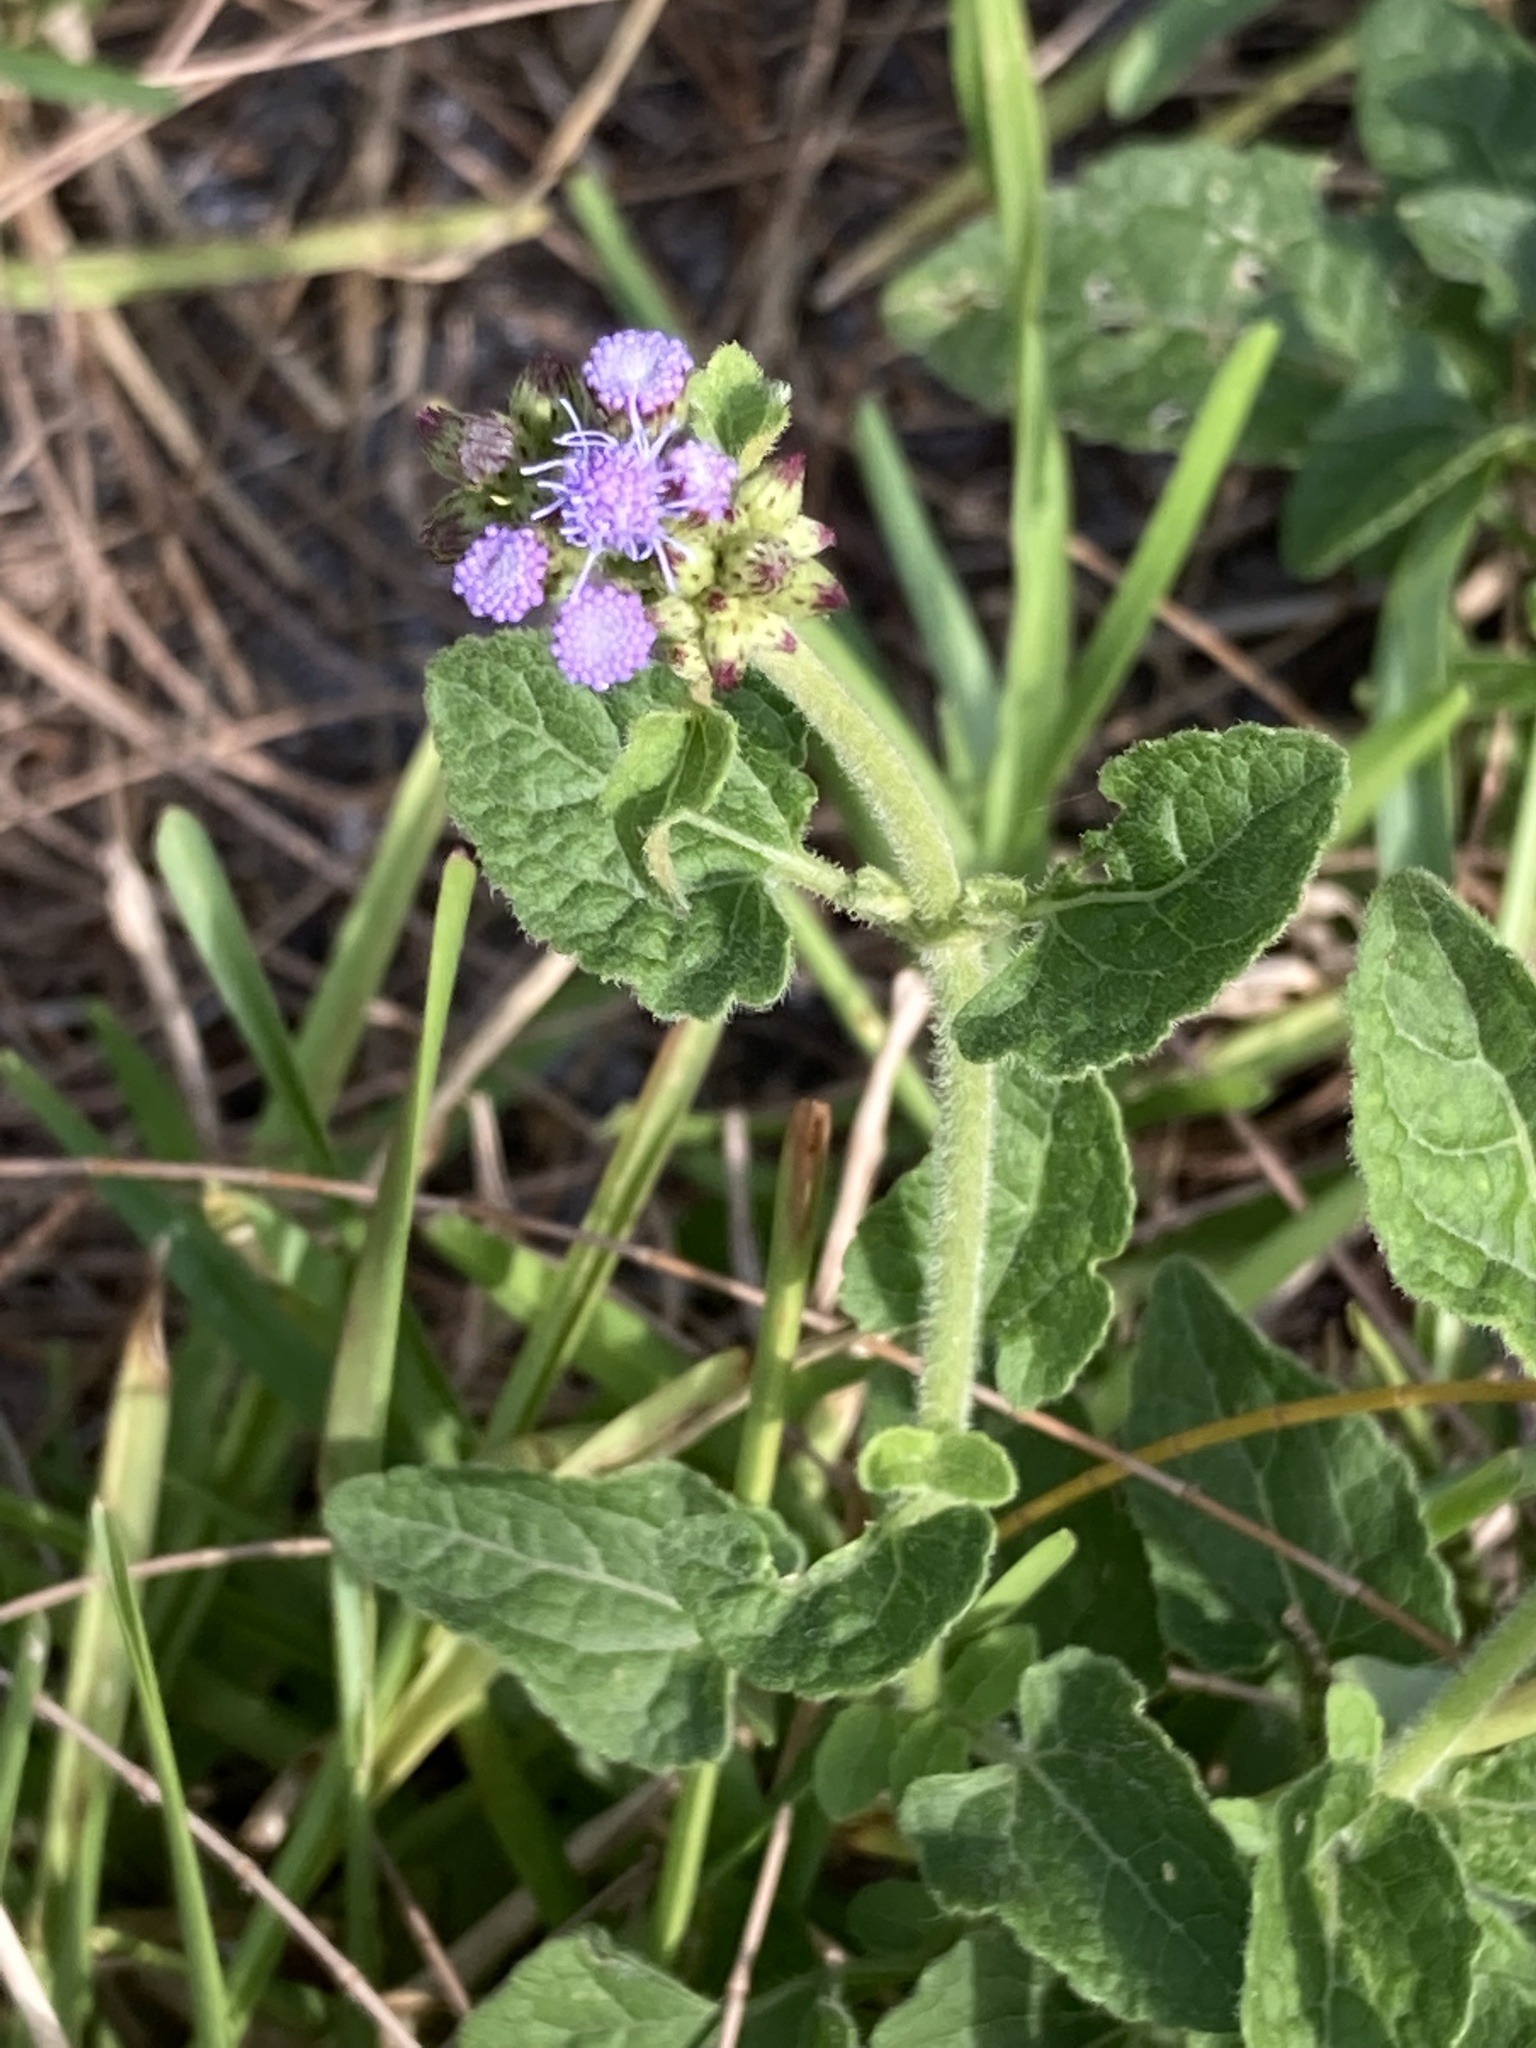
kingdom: Plantae
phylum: Tracheophyta
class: Magnoliopsida
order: Asterales
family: Asteraceae
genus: Conoclinium
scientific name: Conoclinium coelestinum
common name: Blue mistflower
